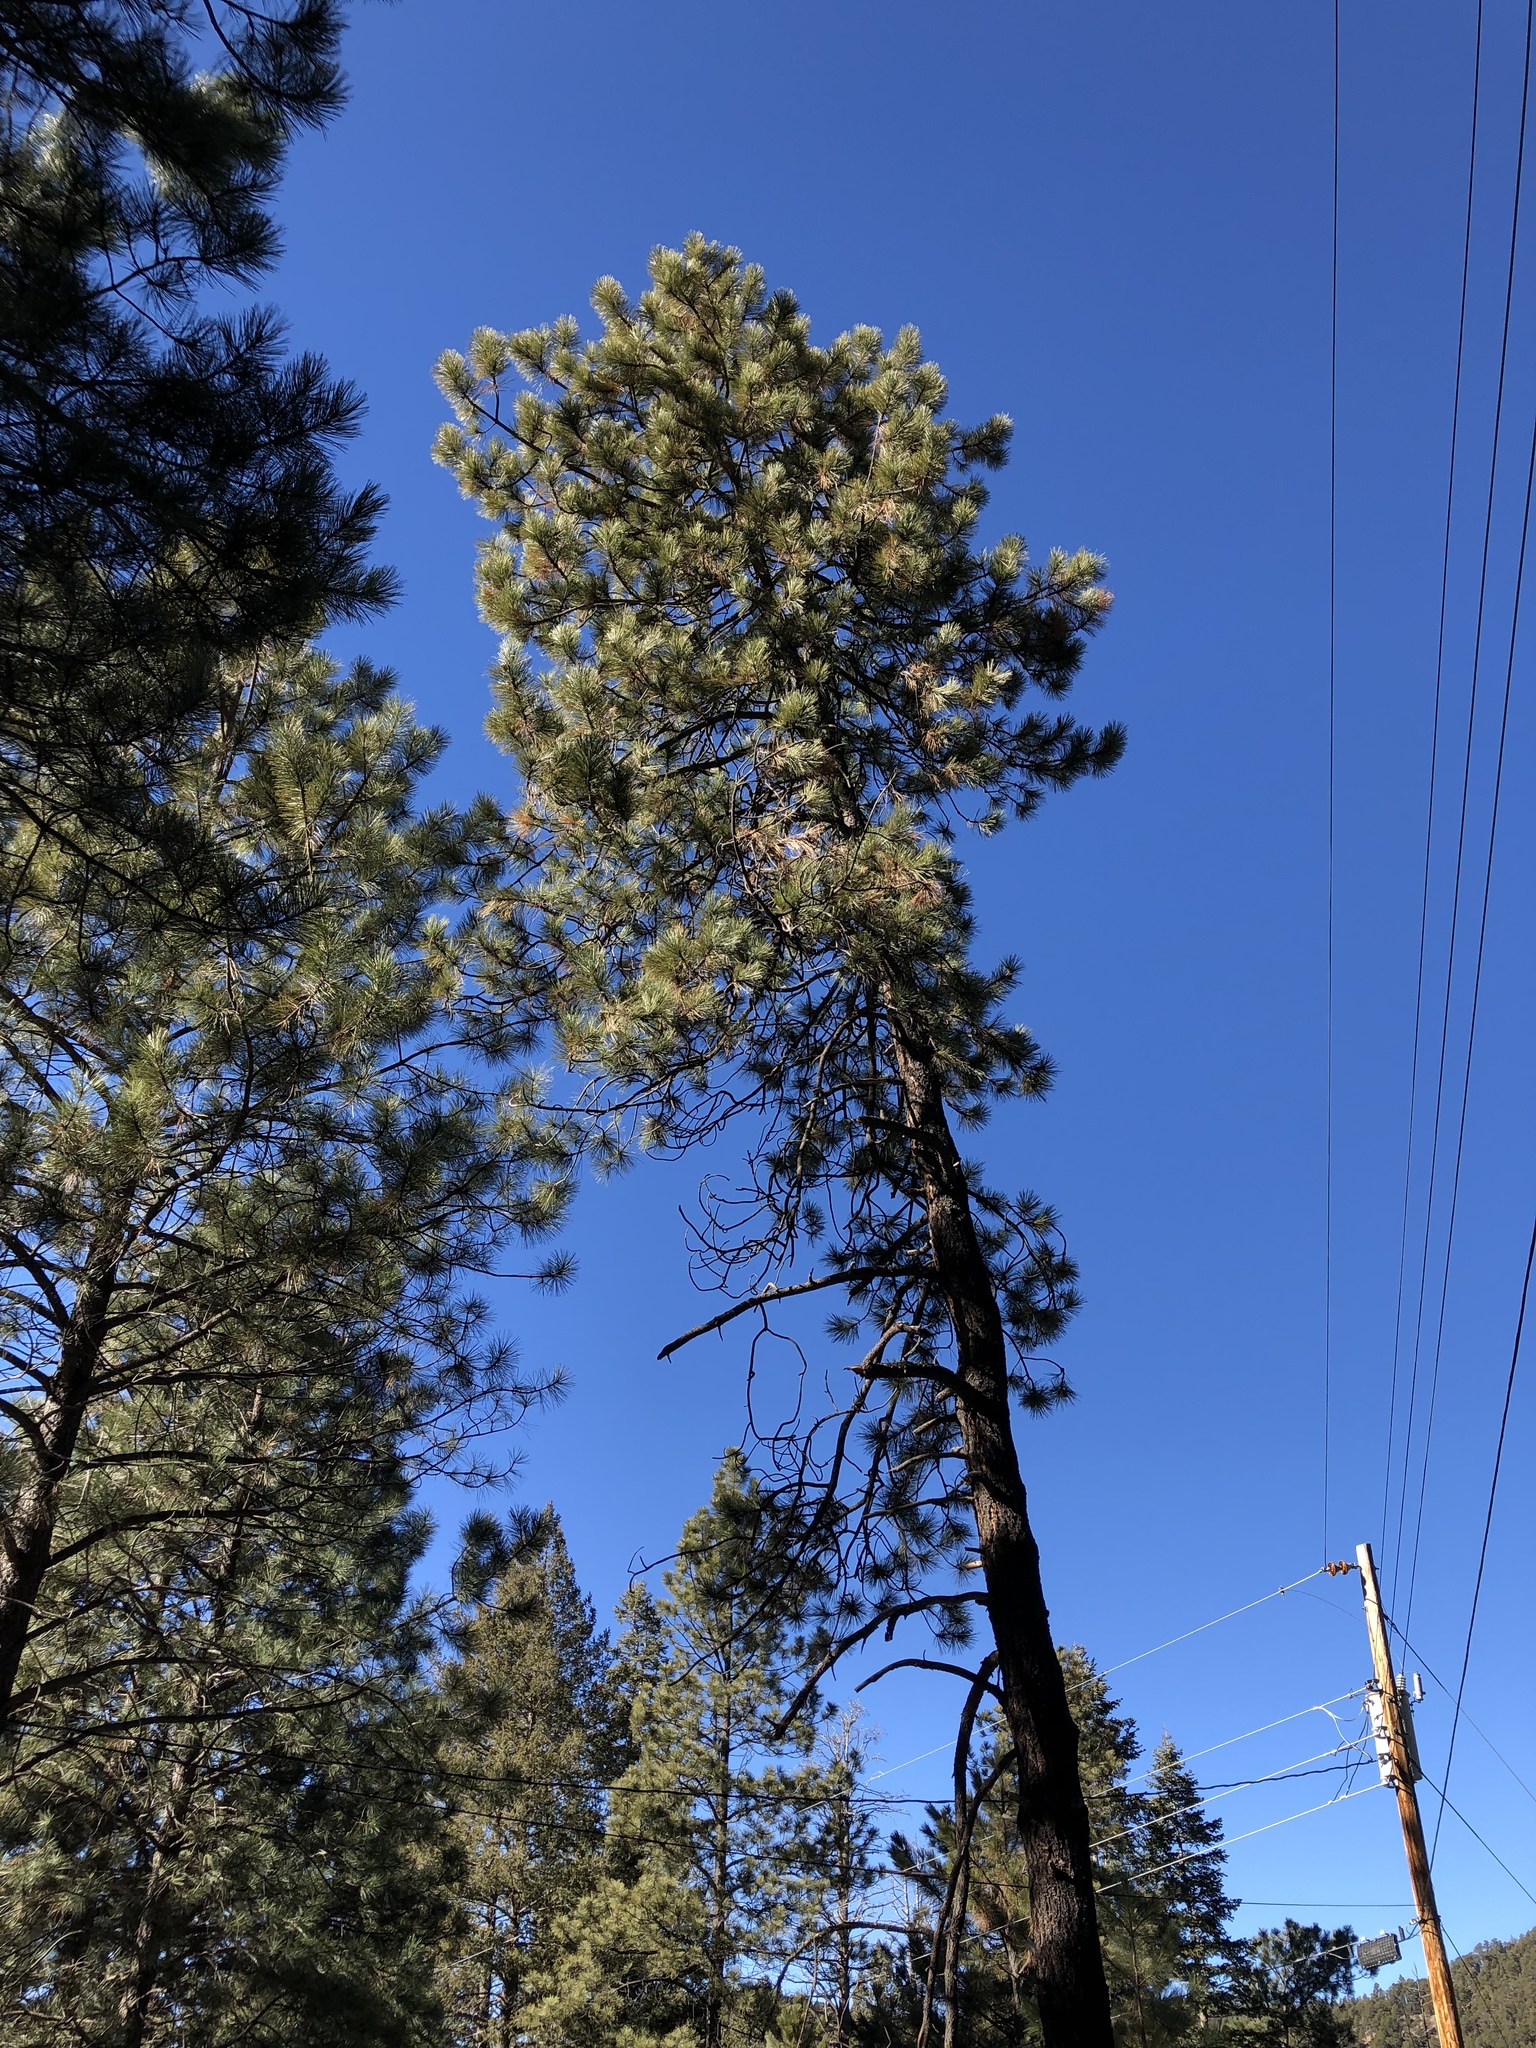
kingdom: Plantae
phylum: Tracheophyta
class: Pinopsida
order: Pinales
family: Pinaceae
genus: Pinus
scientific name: Pinus ponderosa
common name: Western yellow-pine
